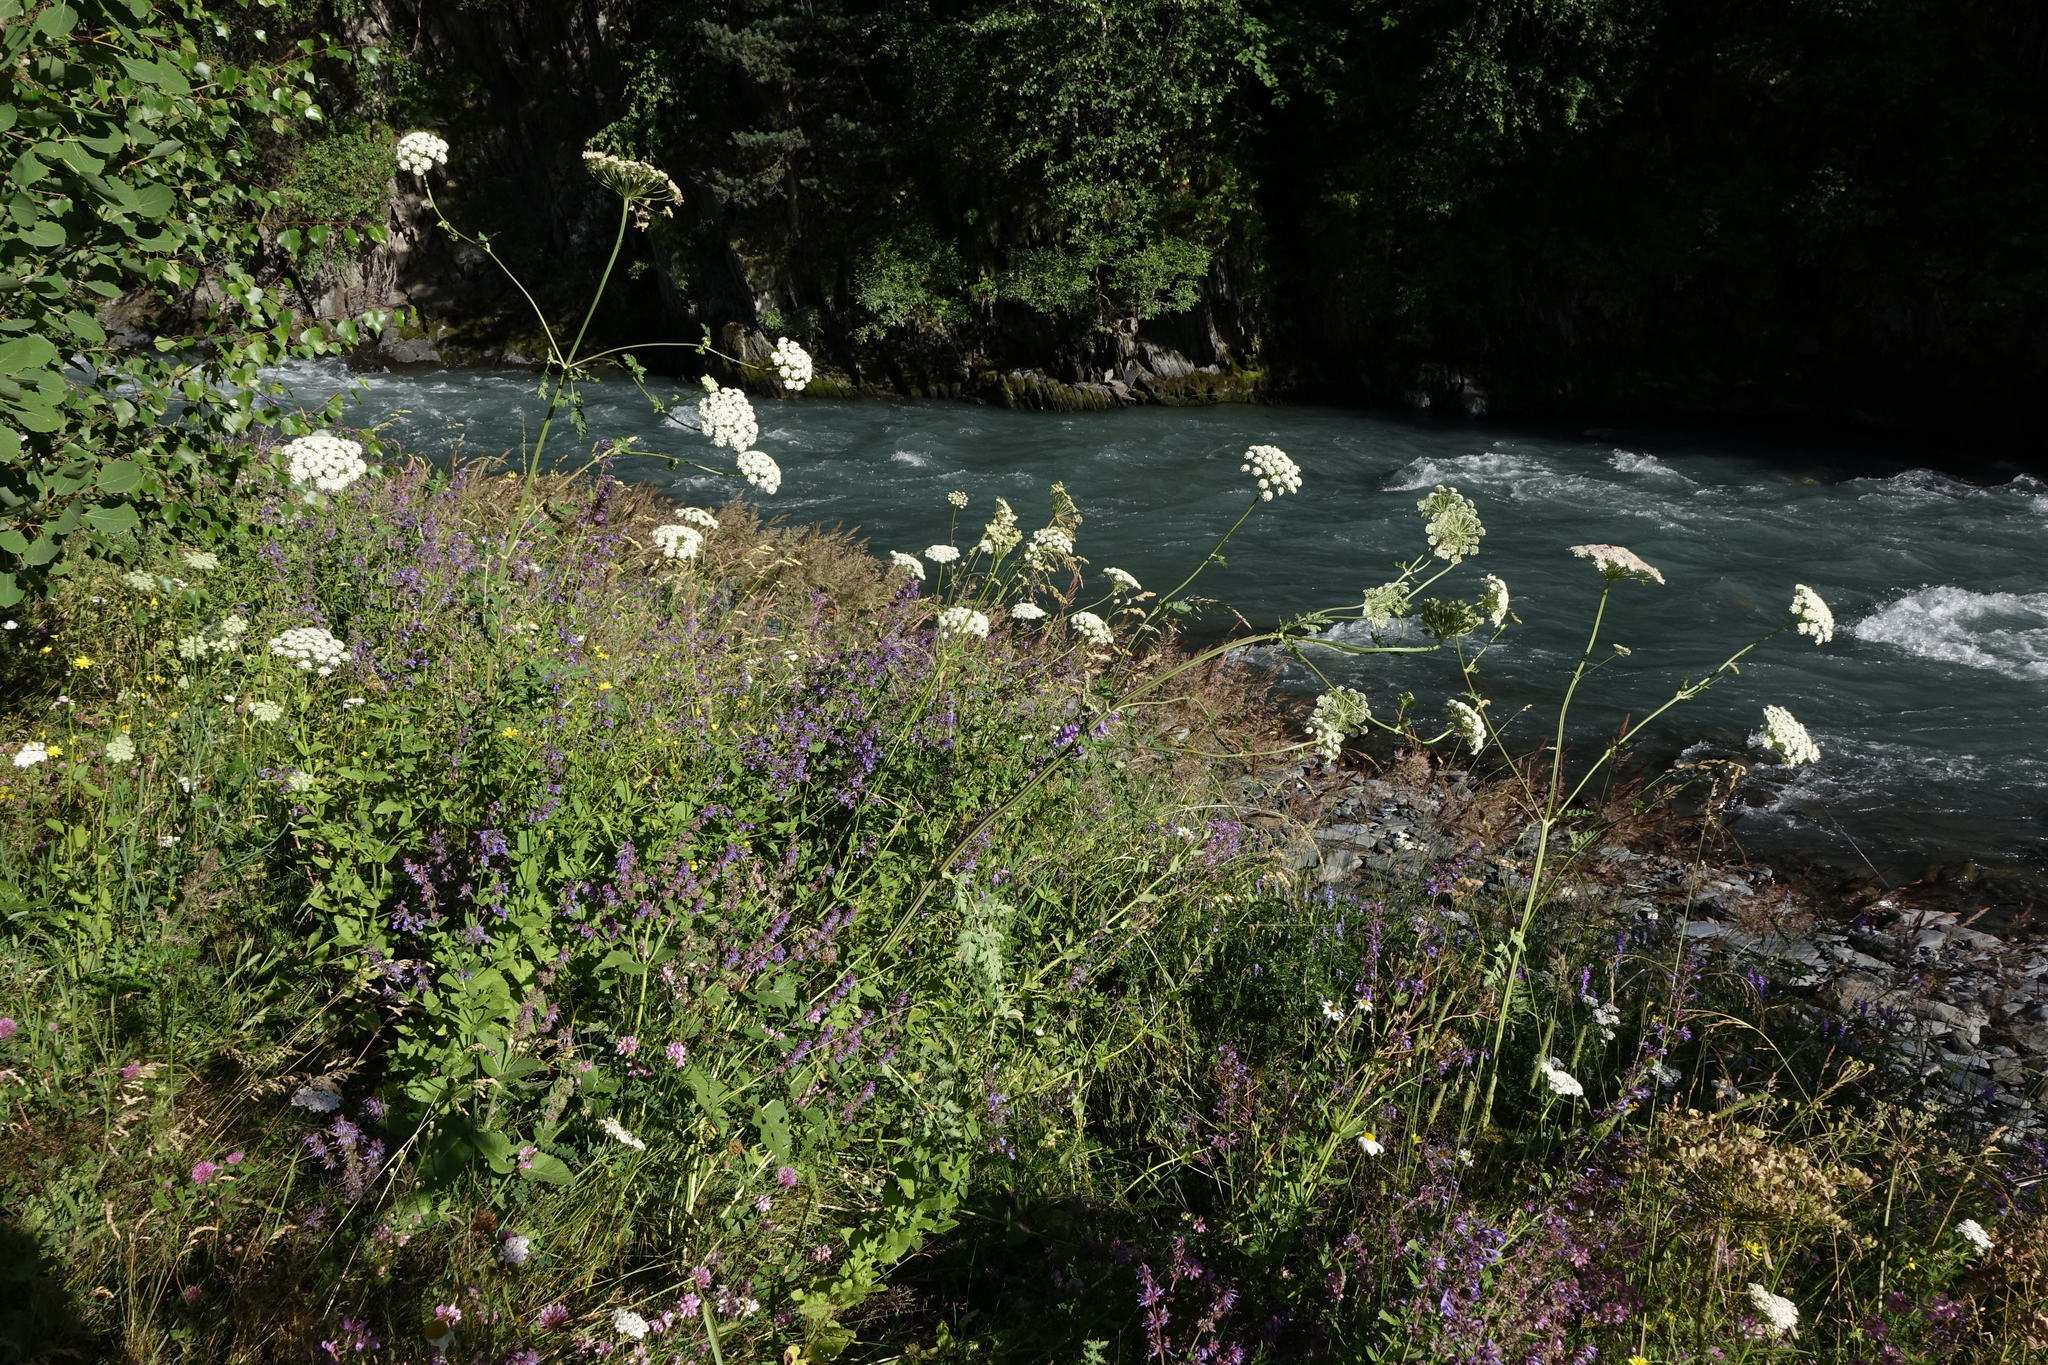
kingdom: Plantae
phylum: Tracheophyta
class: Magnoliopsida
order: Apiales
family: Apiaceae
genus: Seseli
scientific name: Seseli libanotis
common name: Mooncarrot
